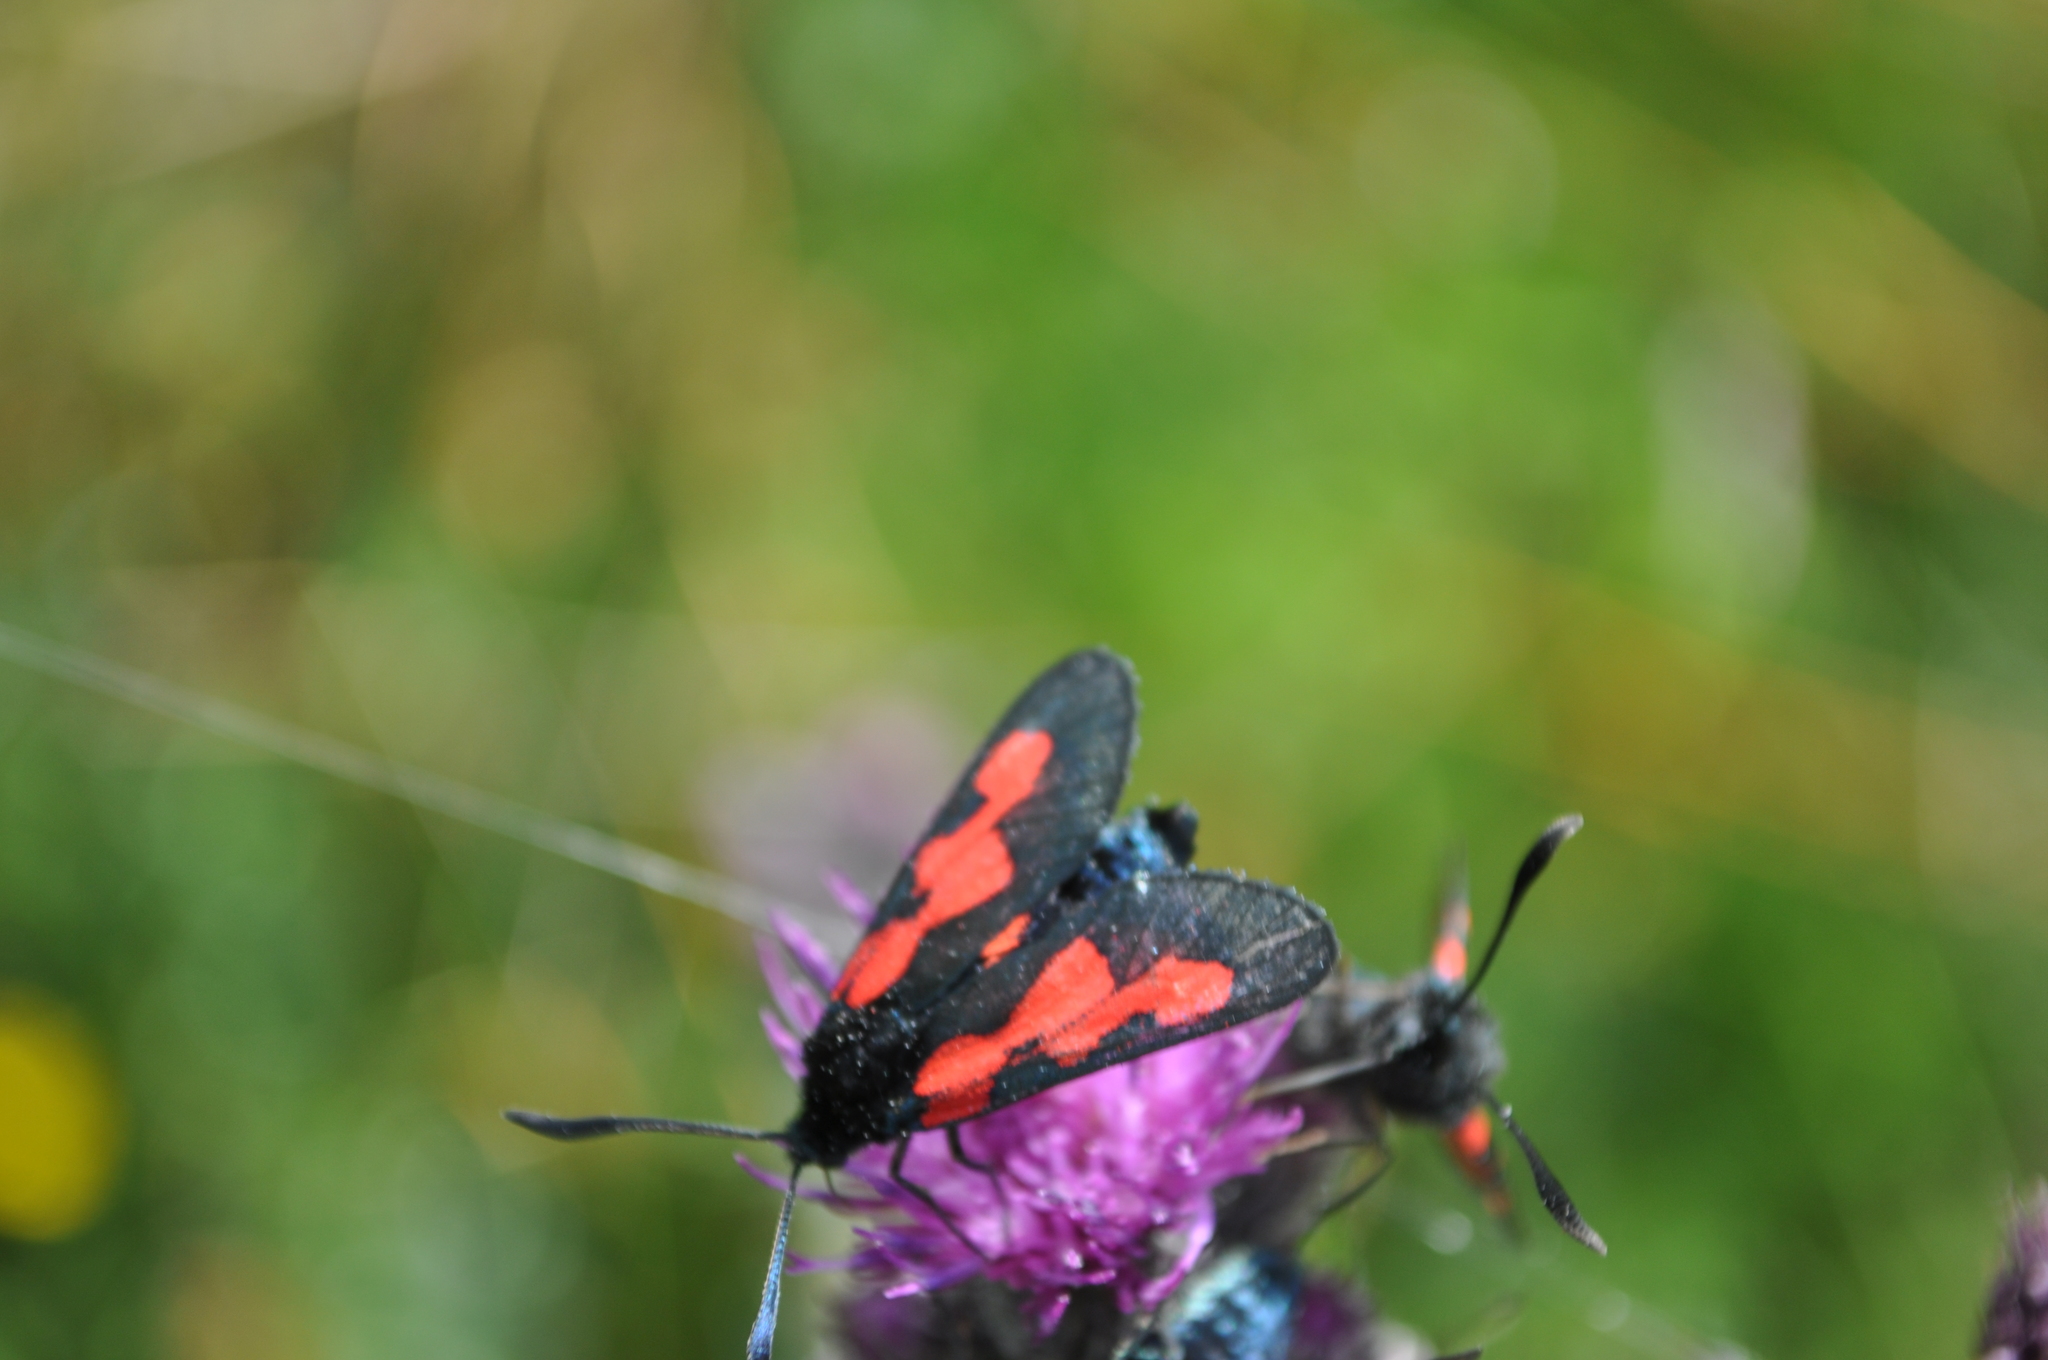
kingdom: Animalia
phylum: Arthropoda
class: Insecta
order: Lepidoptera
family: Zygaenidae
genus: Zygaena
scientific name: Zygaena trifolii
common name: Five-spot burnet
